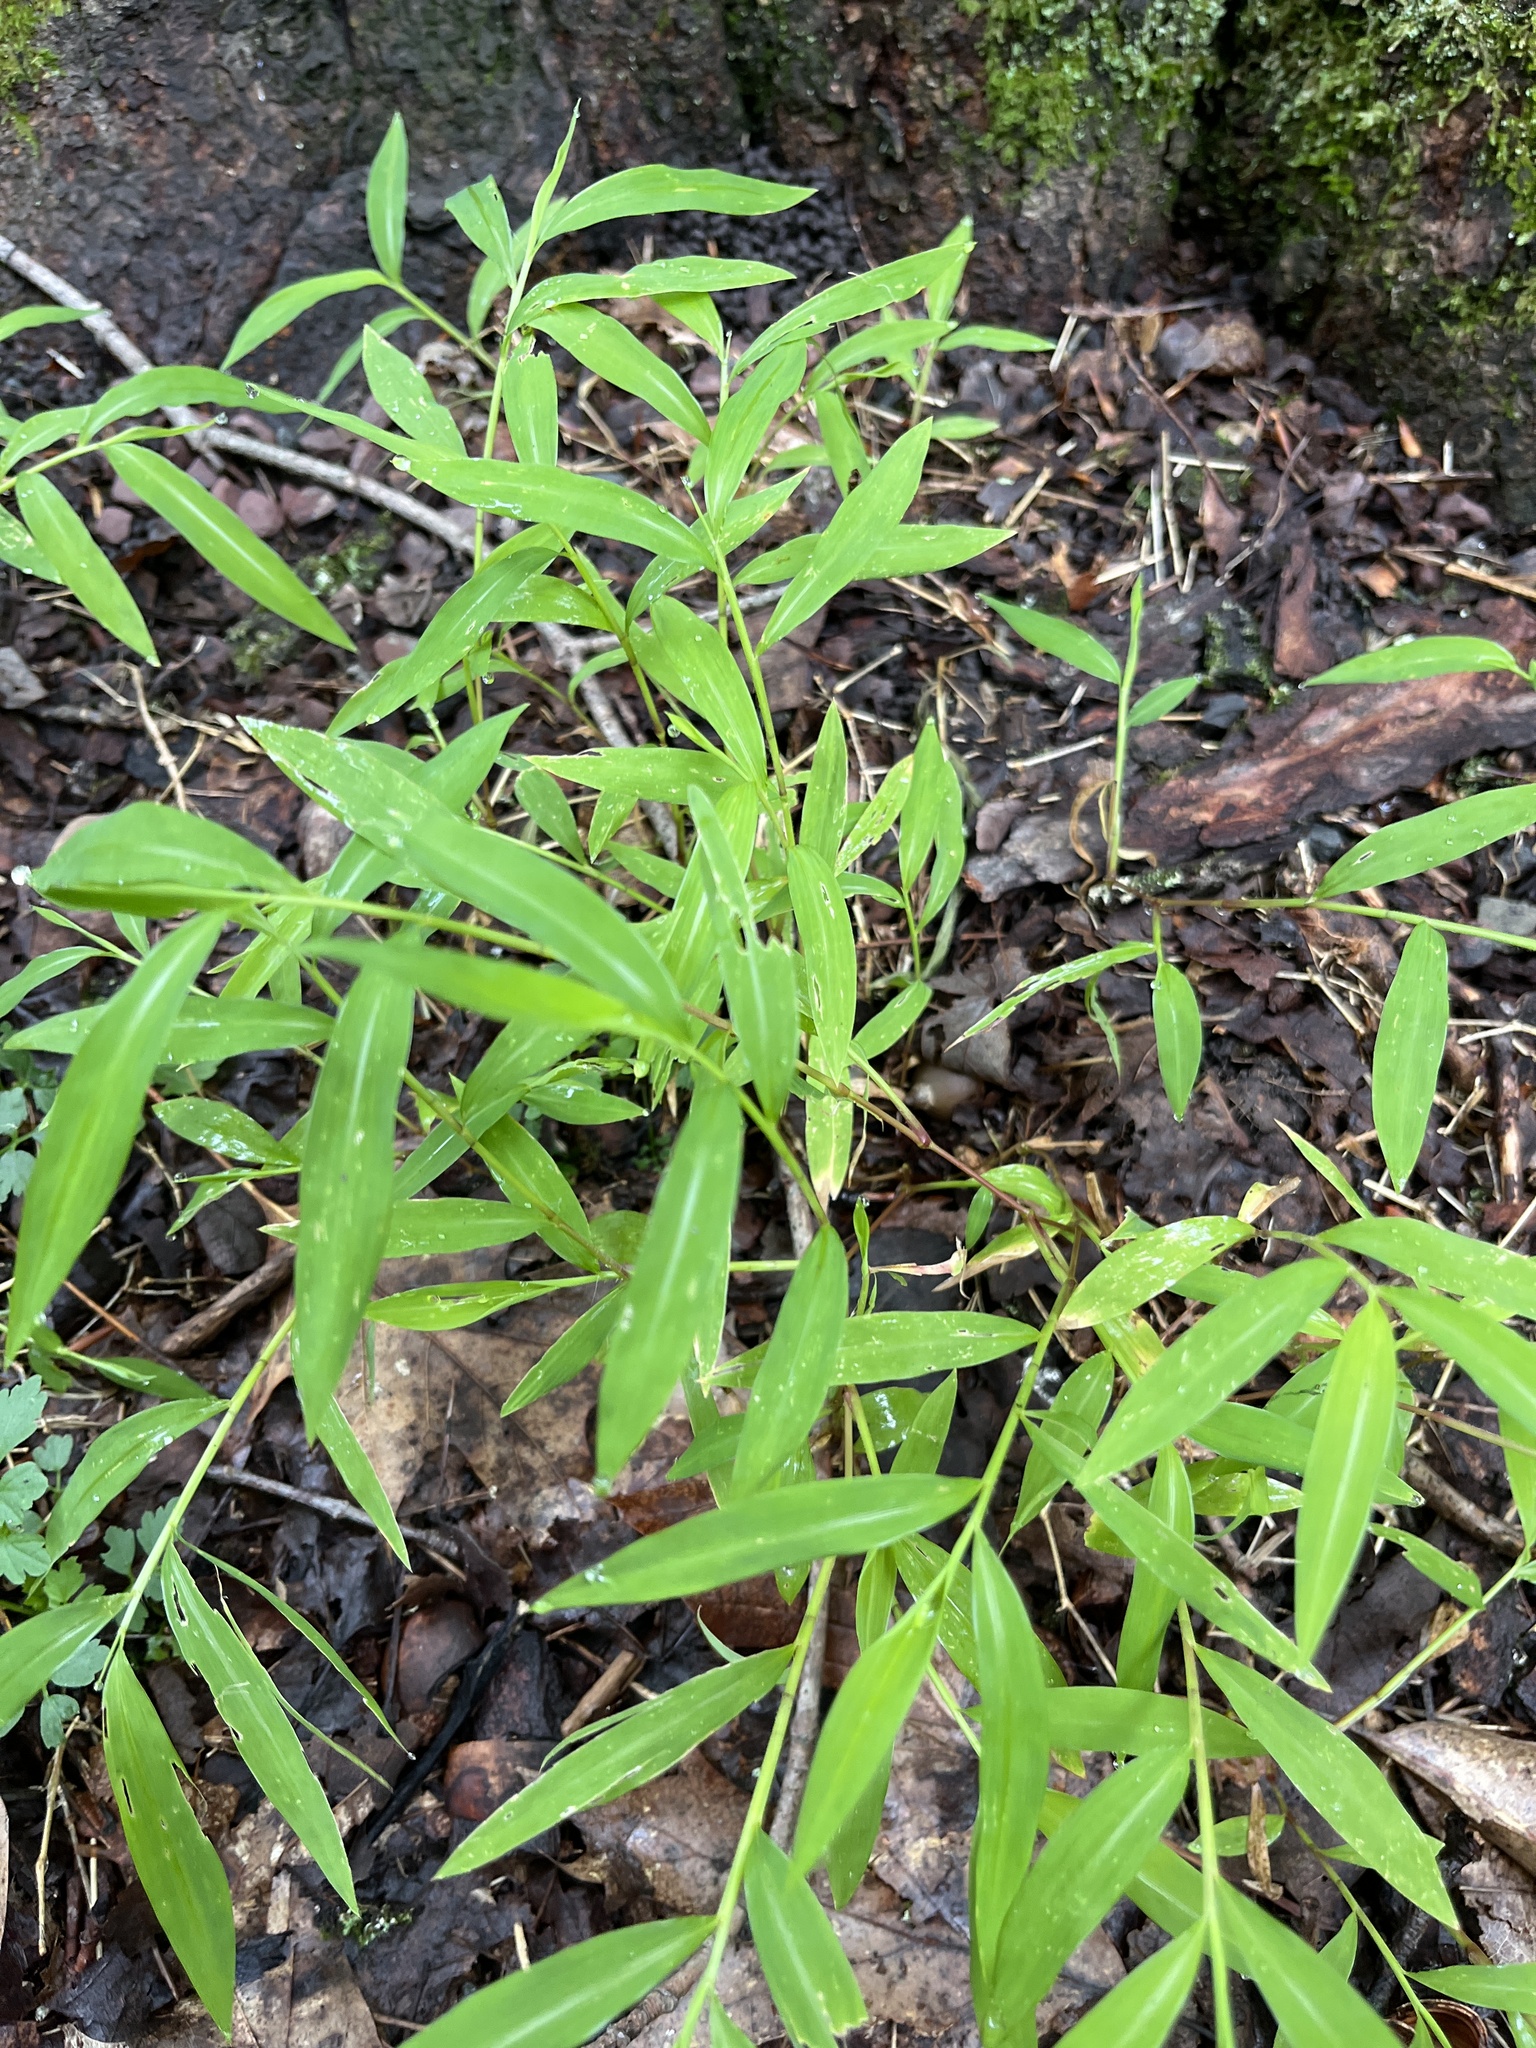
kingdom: Plantae
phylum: Tracheophyta
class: Liliopsida
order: Poales
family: Poaceae
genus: Microstegium
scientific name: Microstegium vimineum
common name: Japanese stiltgrass
